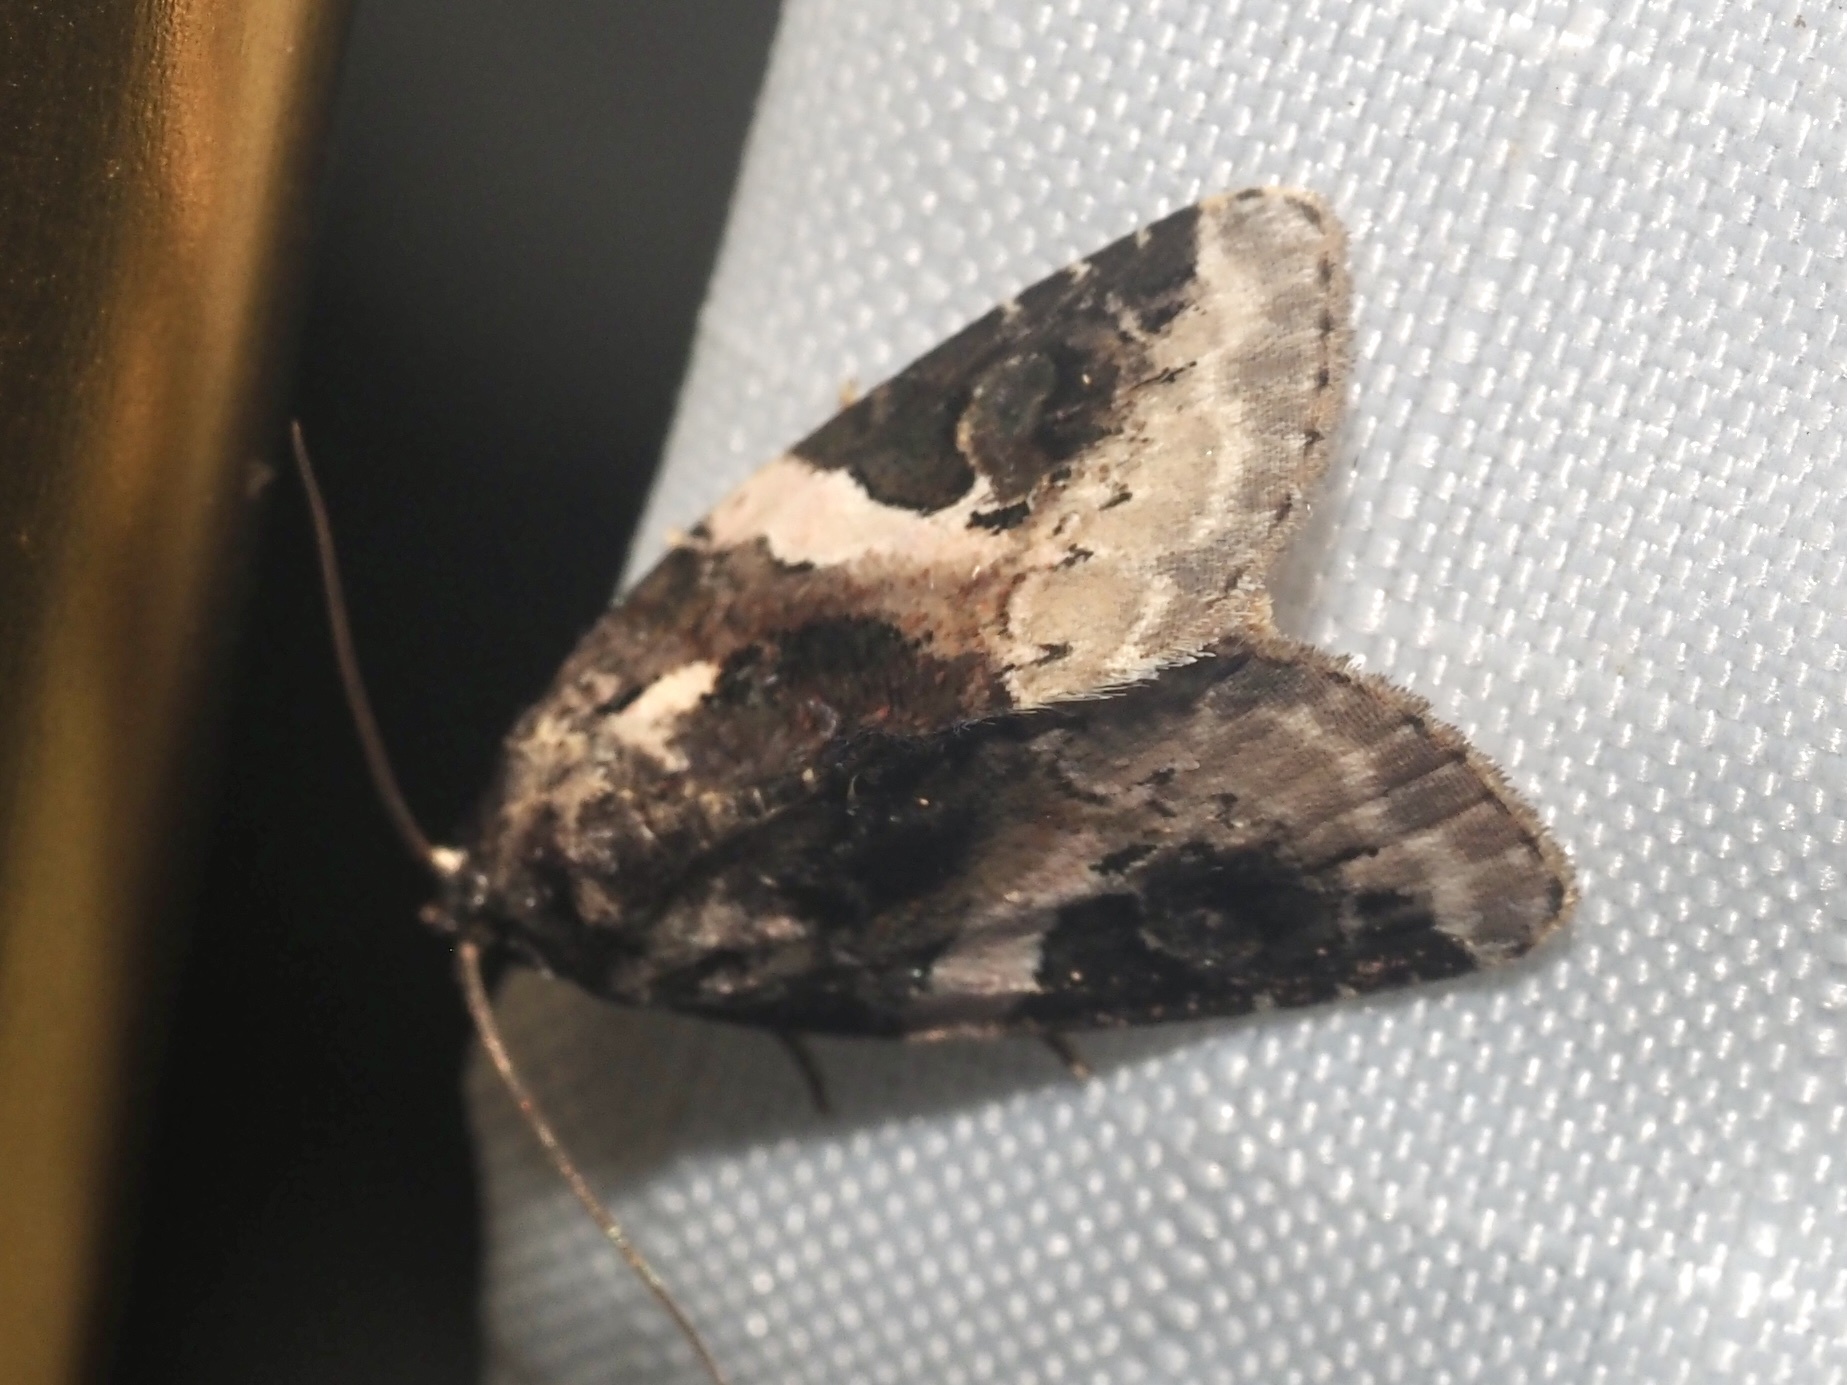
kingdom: Animalia
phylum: Arthropoda
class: Insecta
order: Lepidoptera
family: Noctuidae
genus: Pseudeustrotia
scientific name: Pseudeustrotia carneola
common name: Pink-barred lithacodia moth
